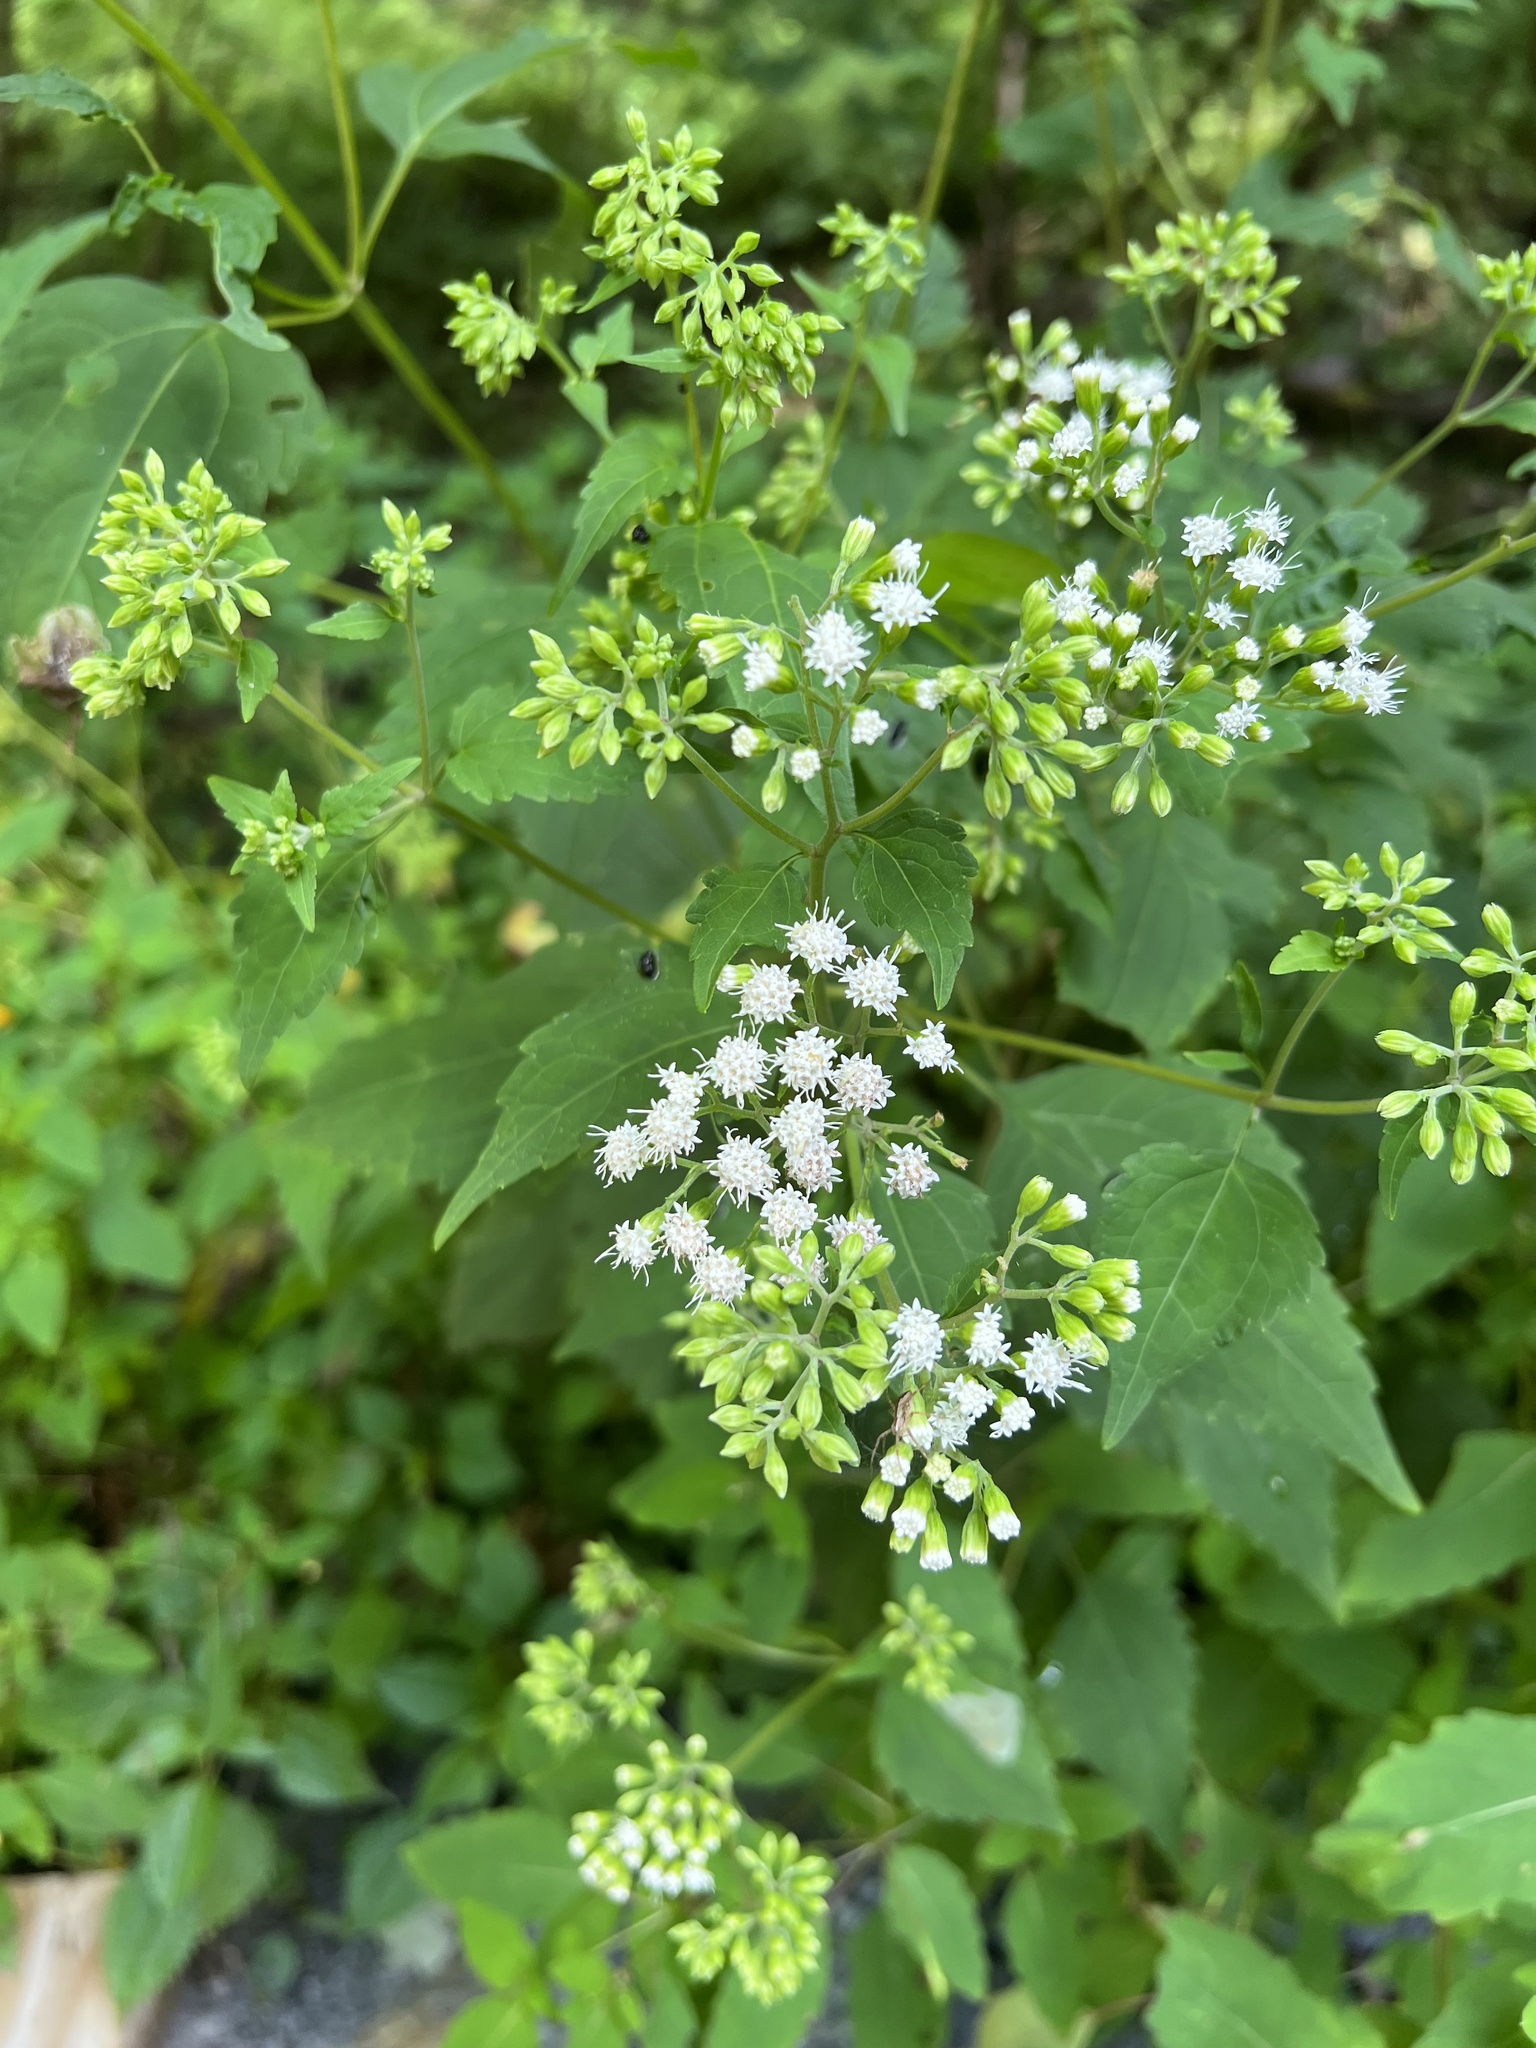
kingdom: Plantae
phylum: Tracheophyta
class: Magnoliopsida
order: Asterales
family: Asteraceae
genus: Ageratina
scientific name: Ageratina altissima
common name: White snakeroot
